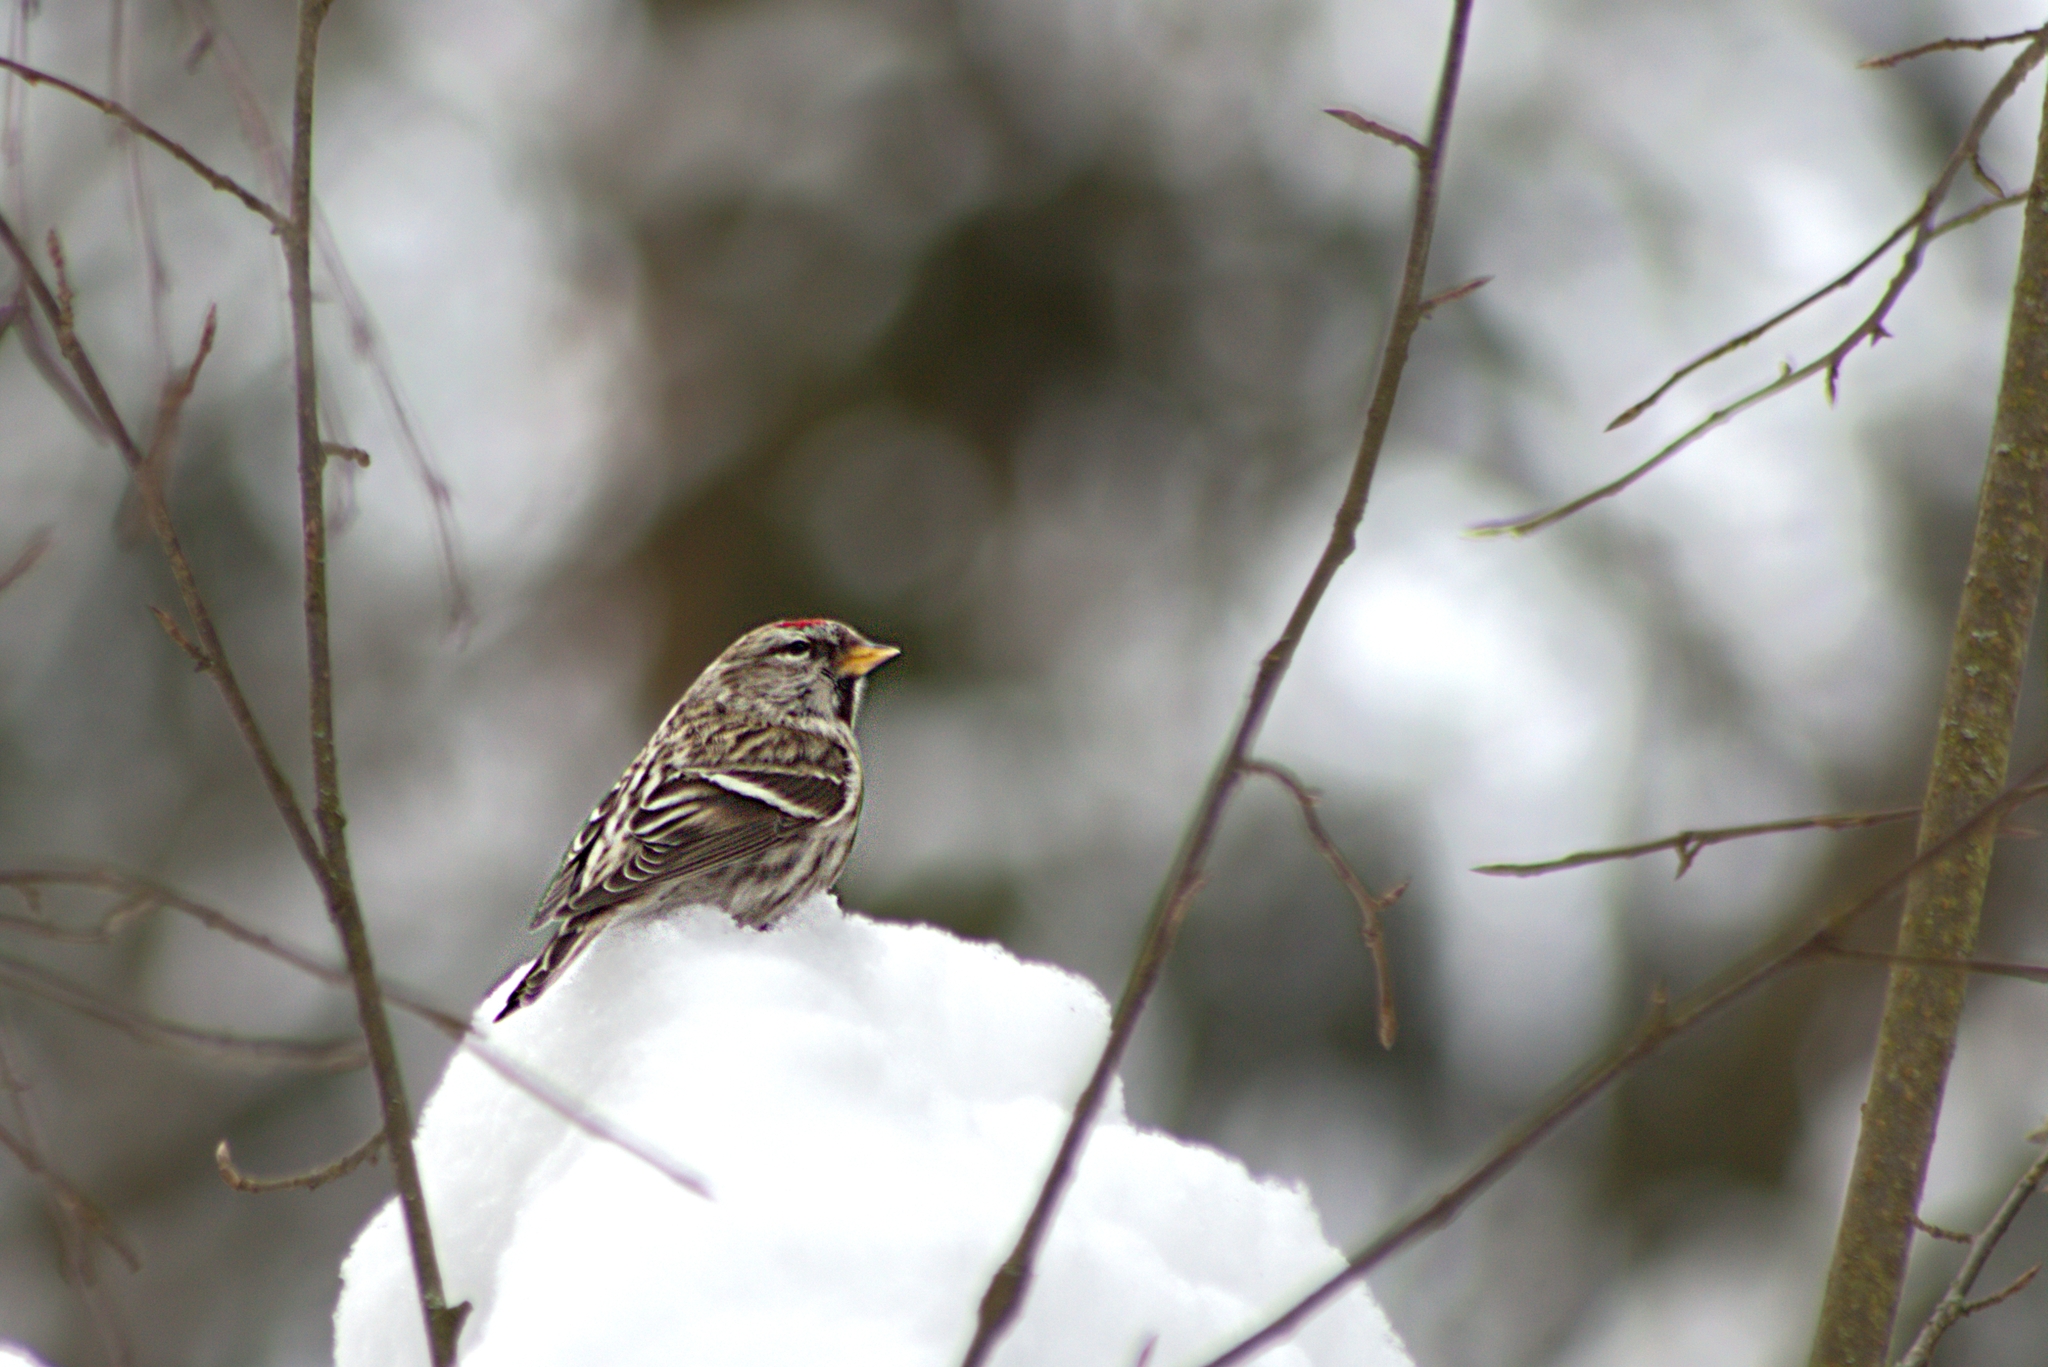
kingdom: Animalia
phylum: Chordata
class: Aves
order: Passeriformes
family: Fringillidae
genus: Acanthis
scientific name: Acanthis flammea
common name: Common redpoll
